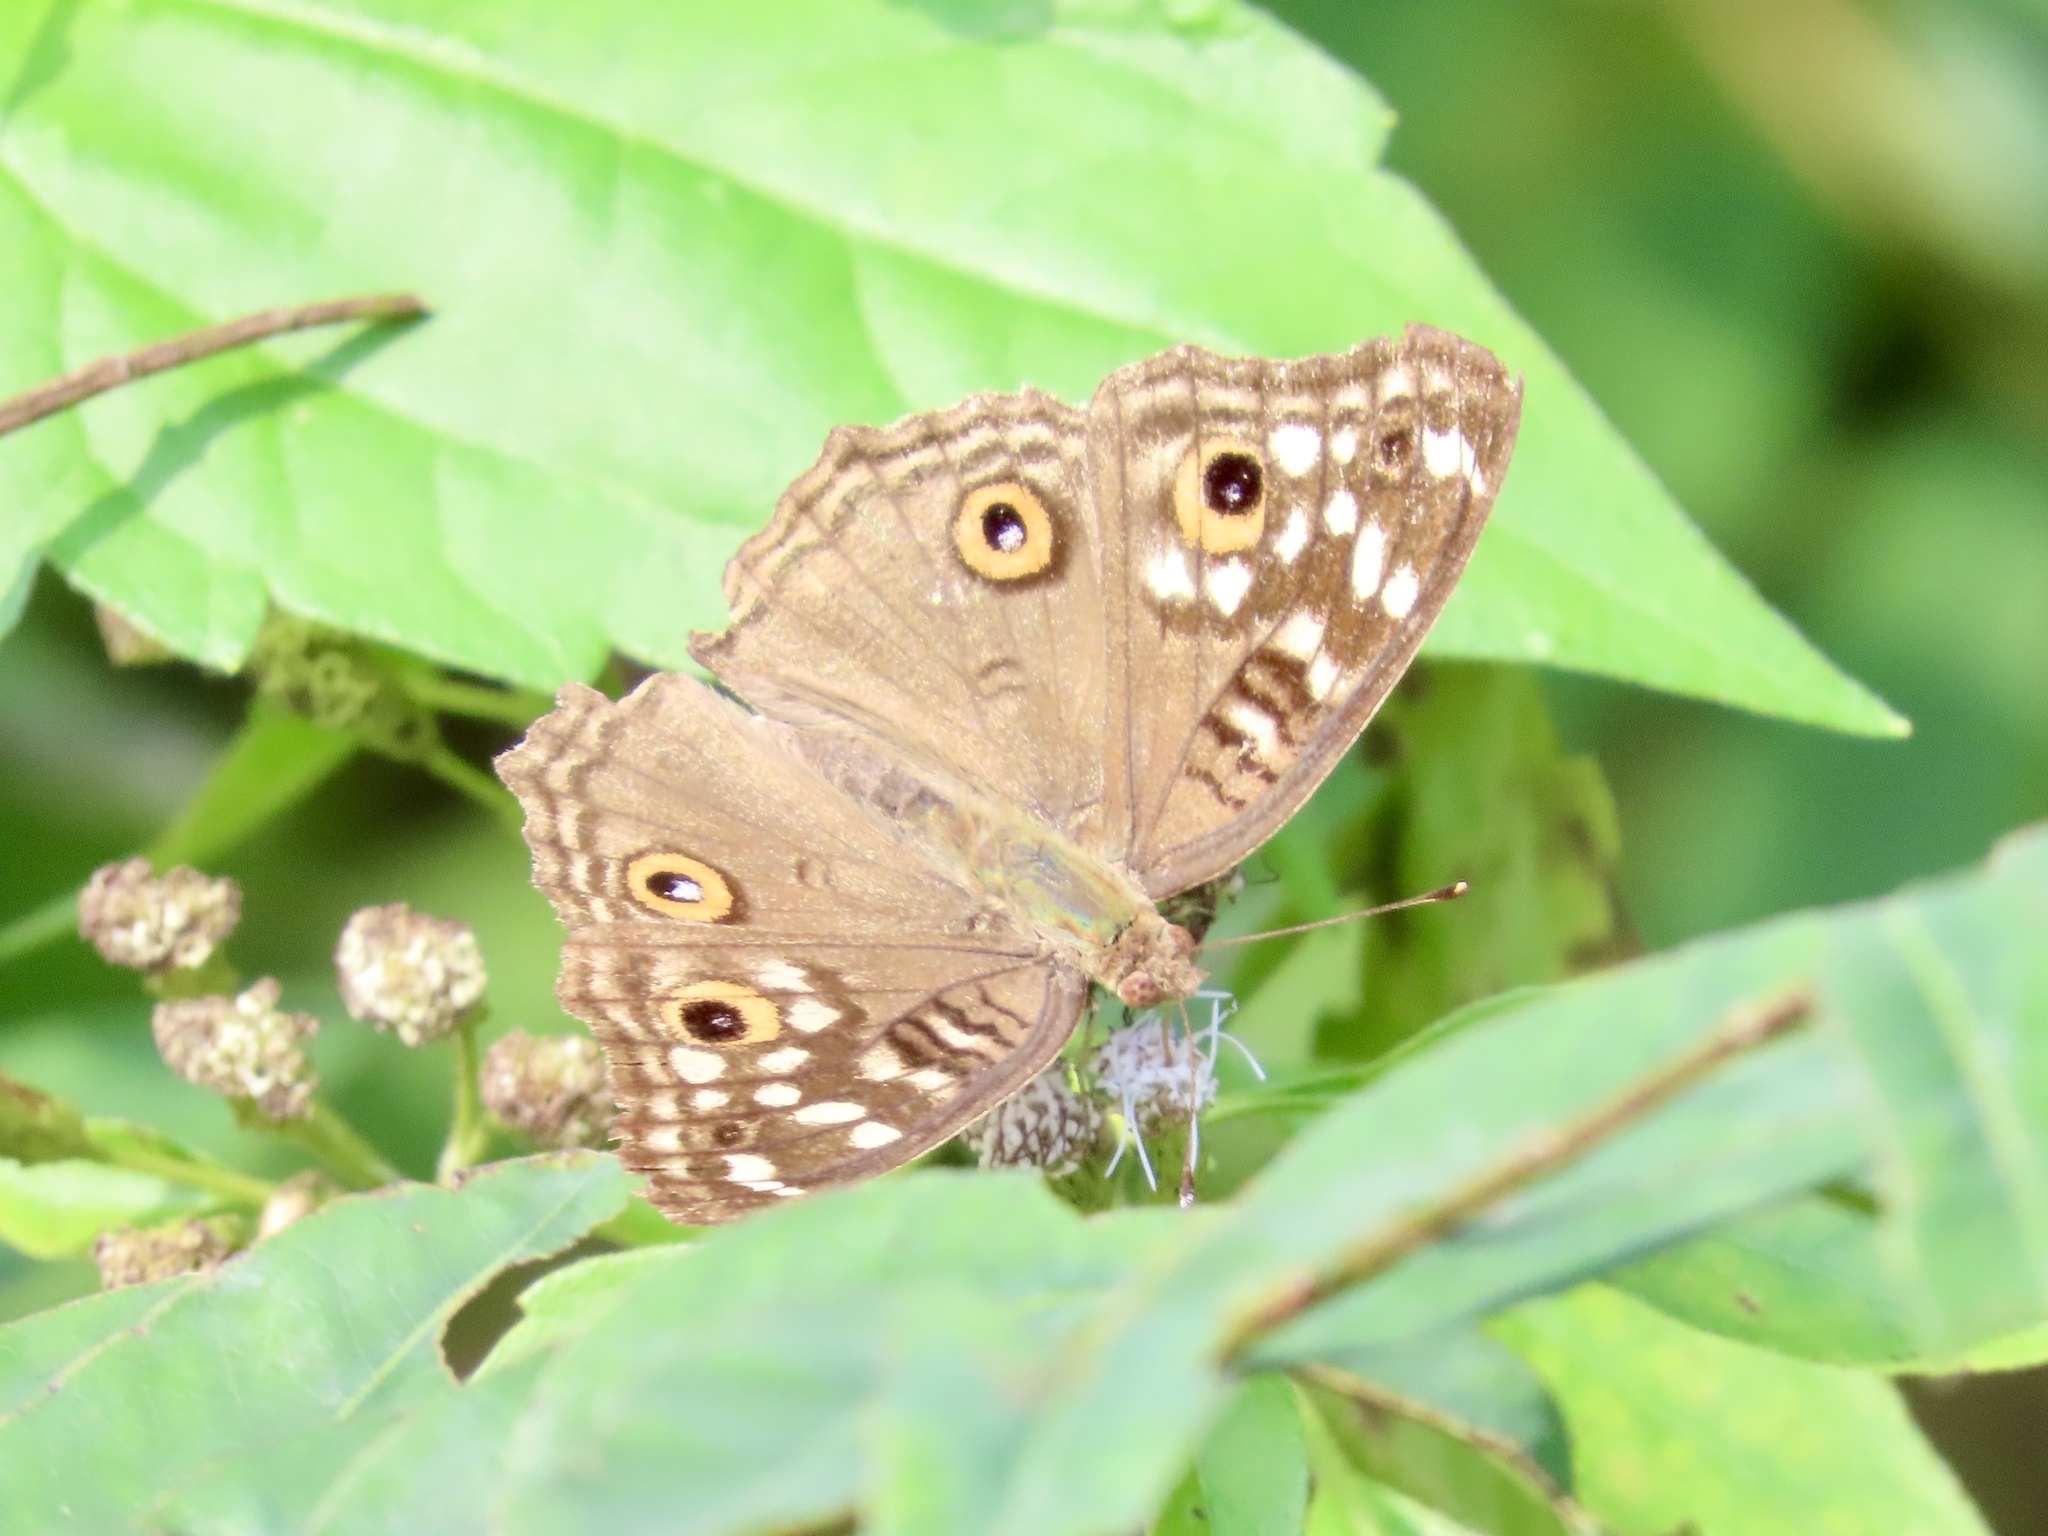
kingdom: Animalia
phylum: Arthropoda
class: Insecta
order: Lepidoptera
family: Nymphalidae
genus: Junonia
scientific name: Junonia lemonias
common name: Lemon pansy
